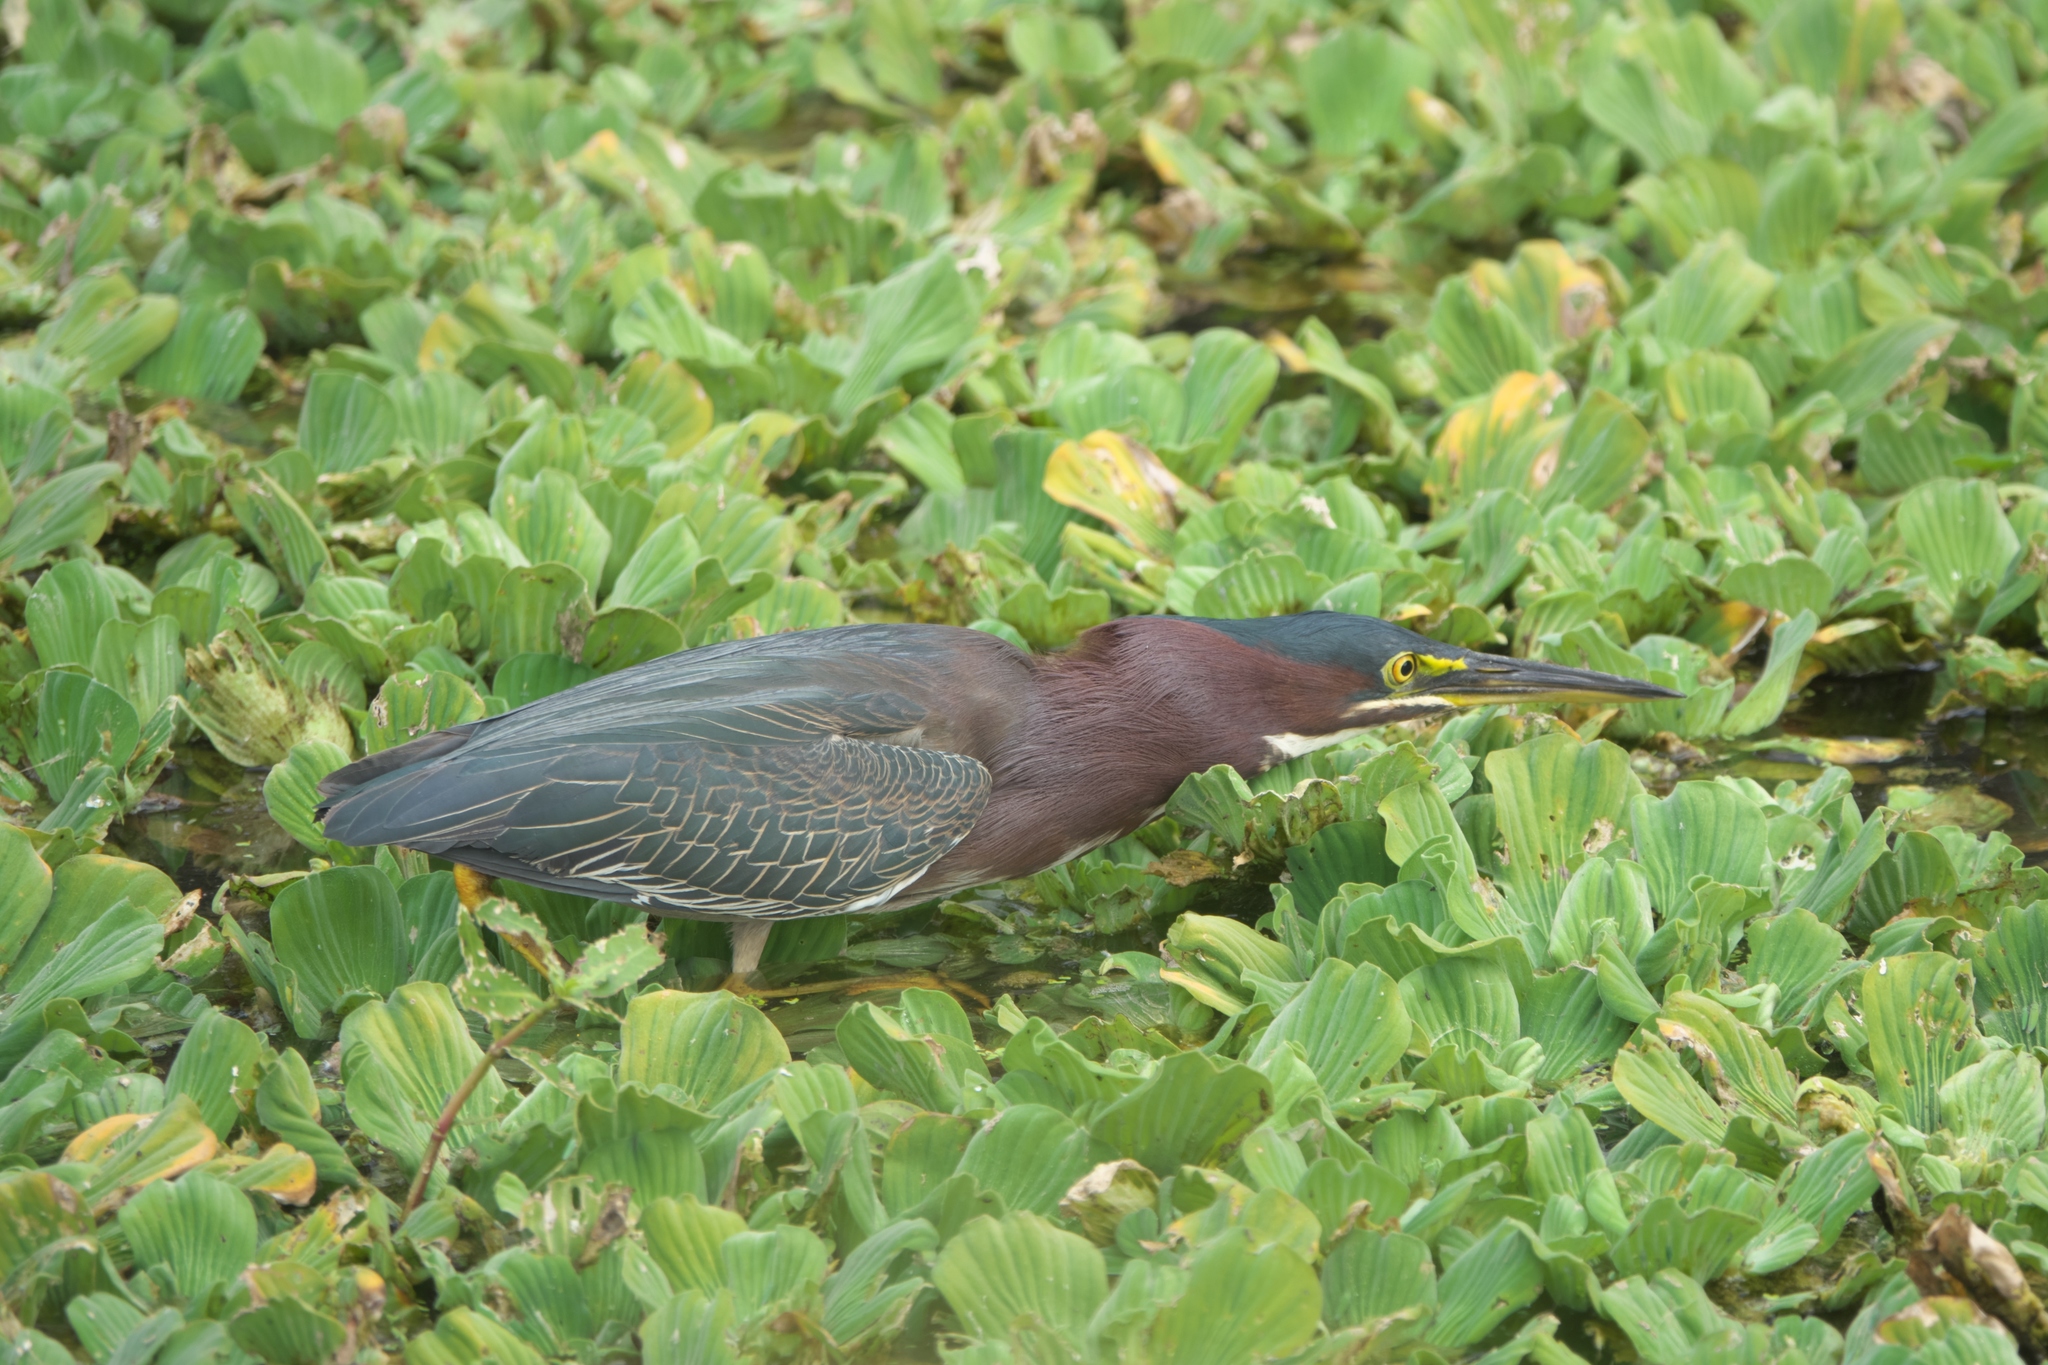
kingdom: Animalia
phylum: Chordata
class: Aves
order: Pelecaniformes
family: Ardeidae
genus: Butorides
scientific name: Butorides virescens
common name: Green heron
